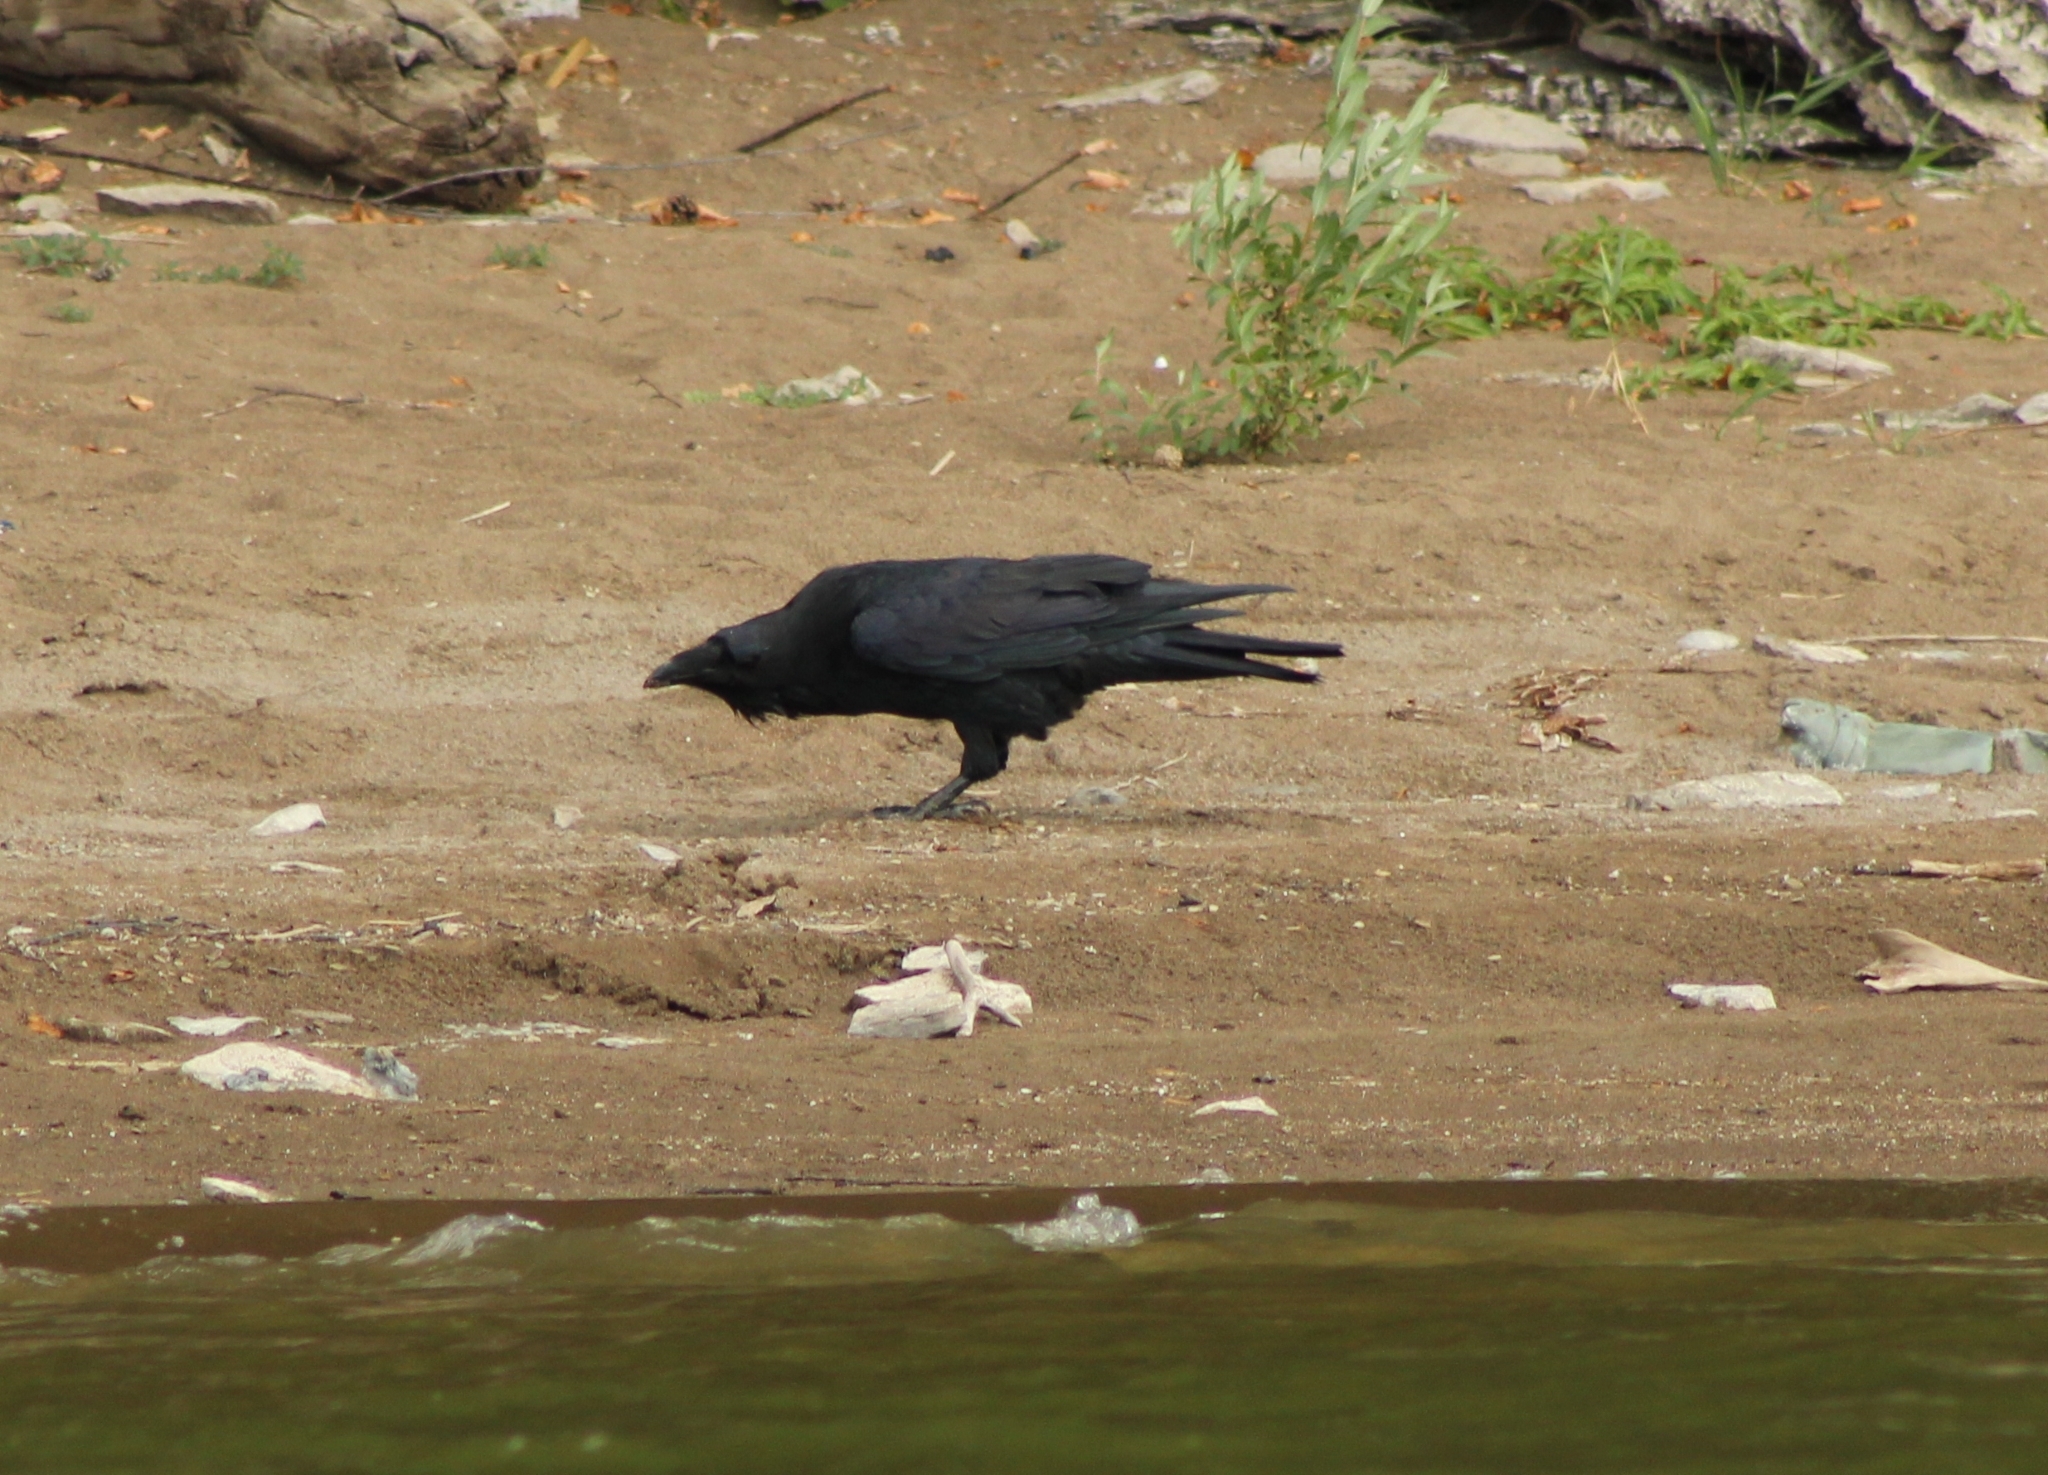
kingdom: Animalia
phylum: Chordata
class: Aves
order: Passeriformes
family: Corvidae
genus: Corvus
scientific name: Corvus corax
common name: Common raven
